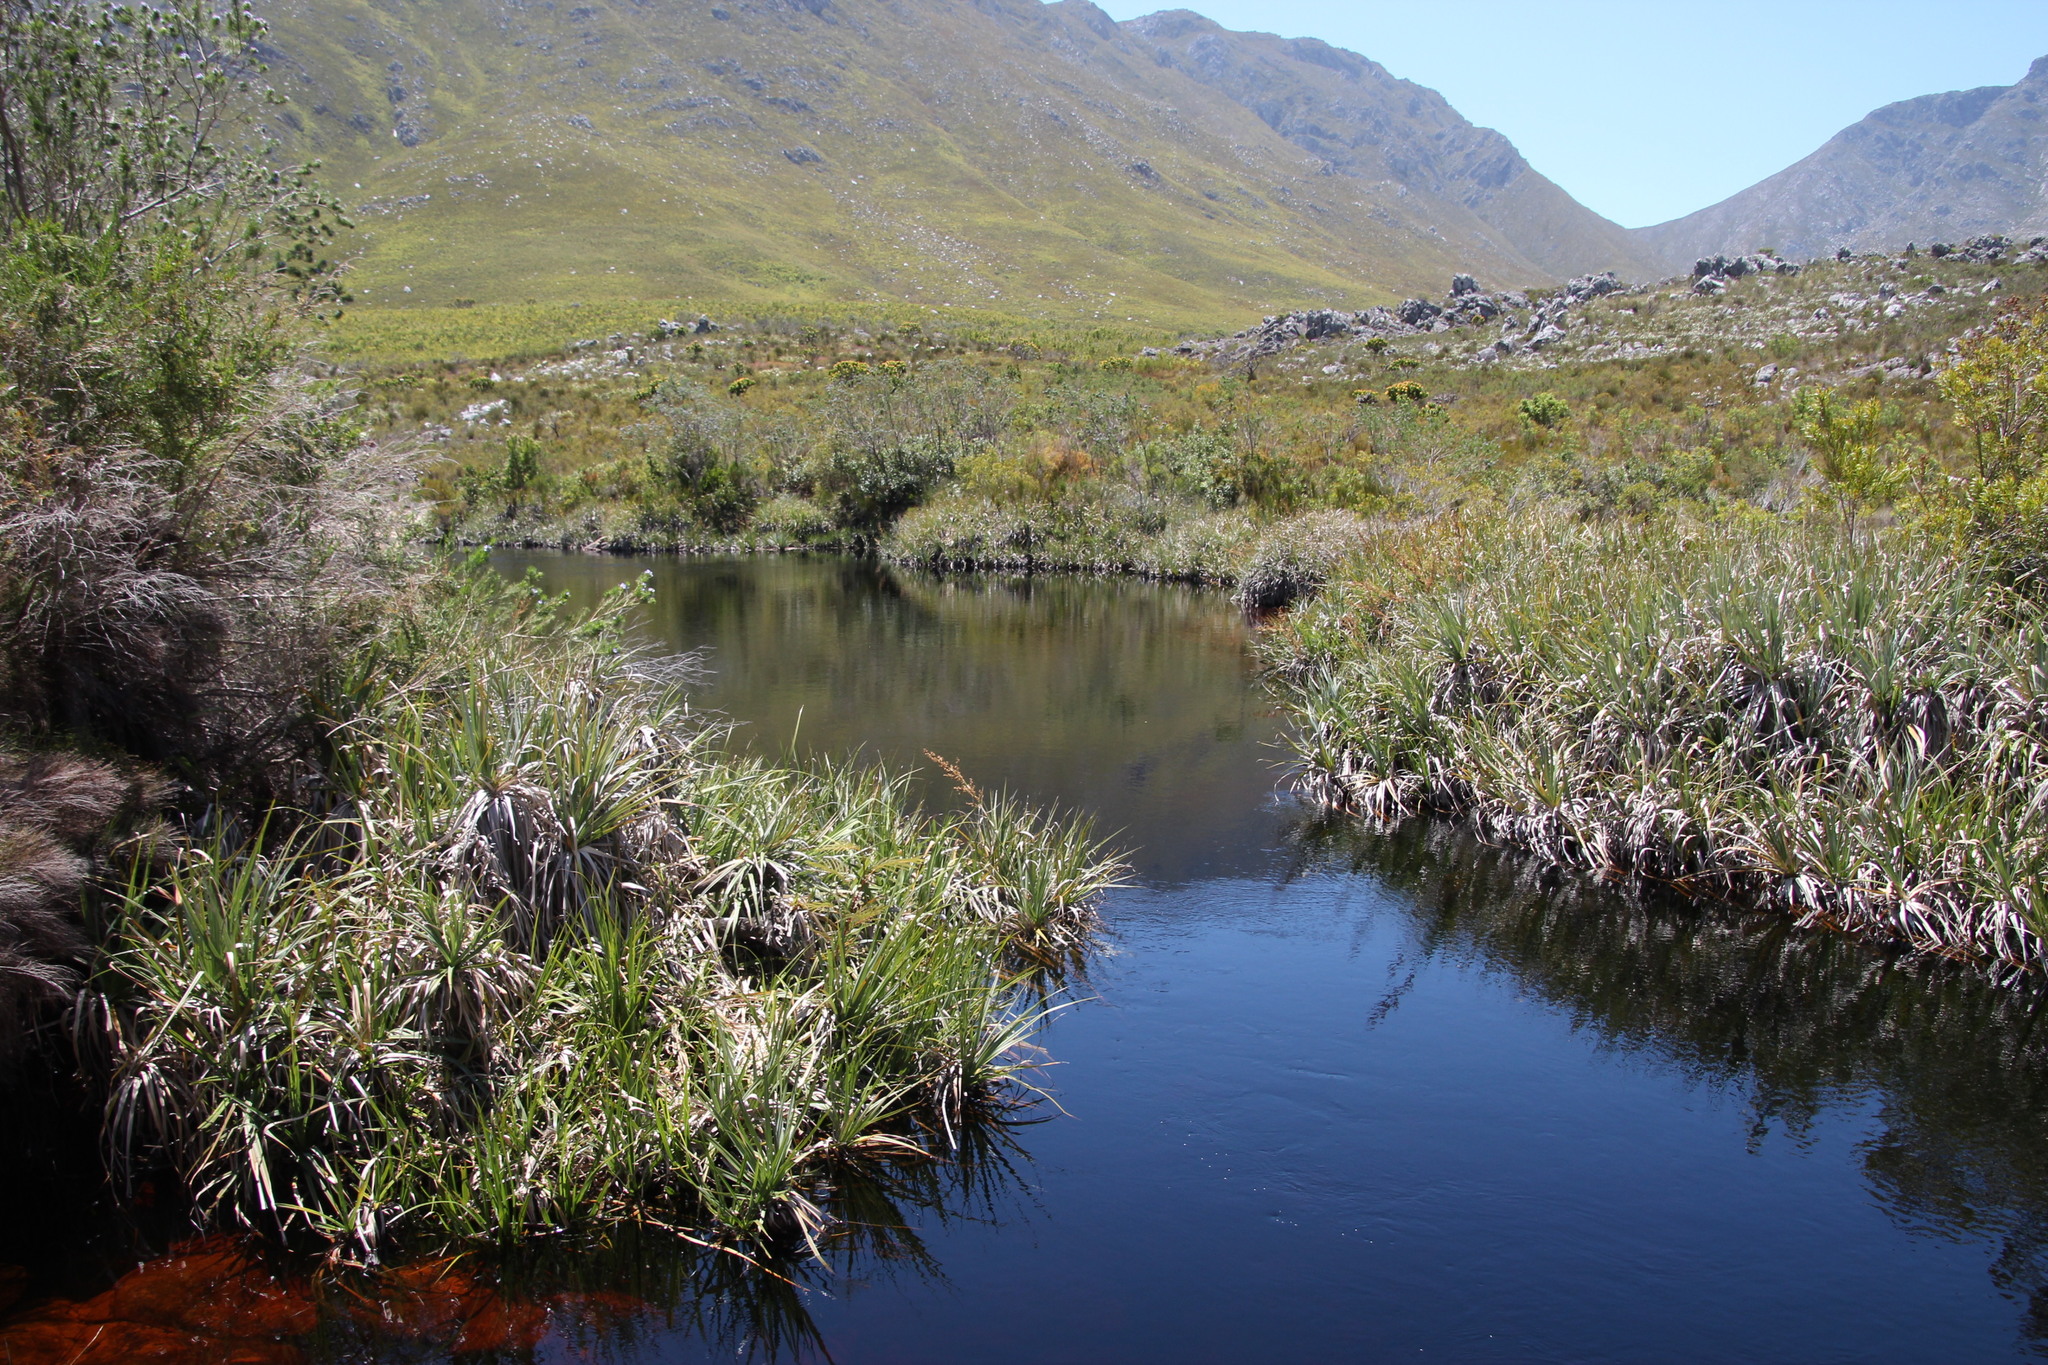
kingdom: Plantae
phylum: Tracheophyta
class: Liliopsida
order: Poales
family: Thurniaceae
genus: Prionium
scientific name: Prionium serratum
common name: Palmiet
